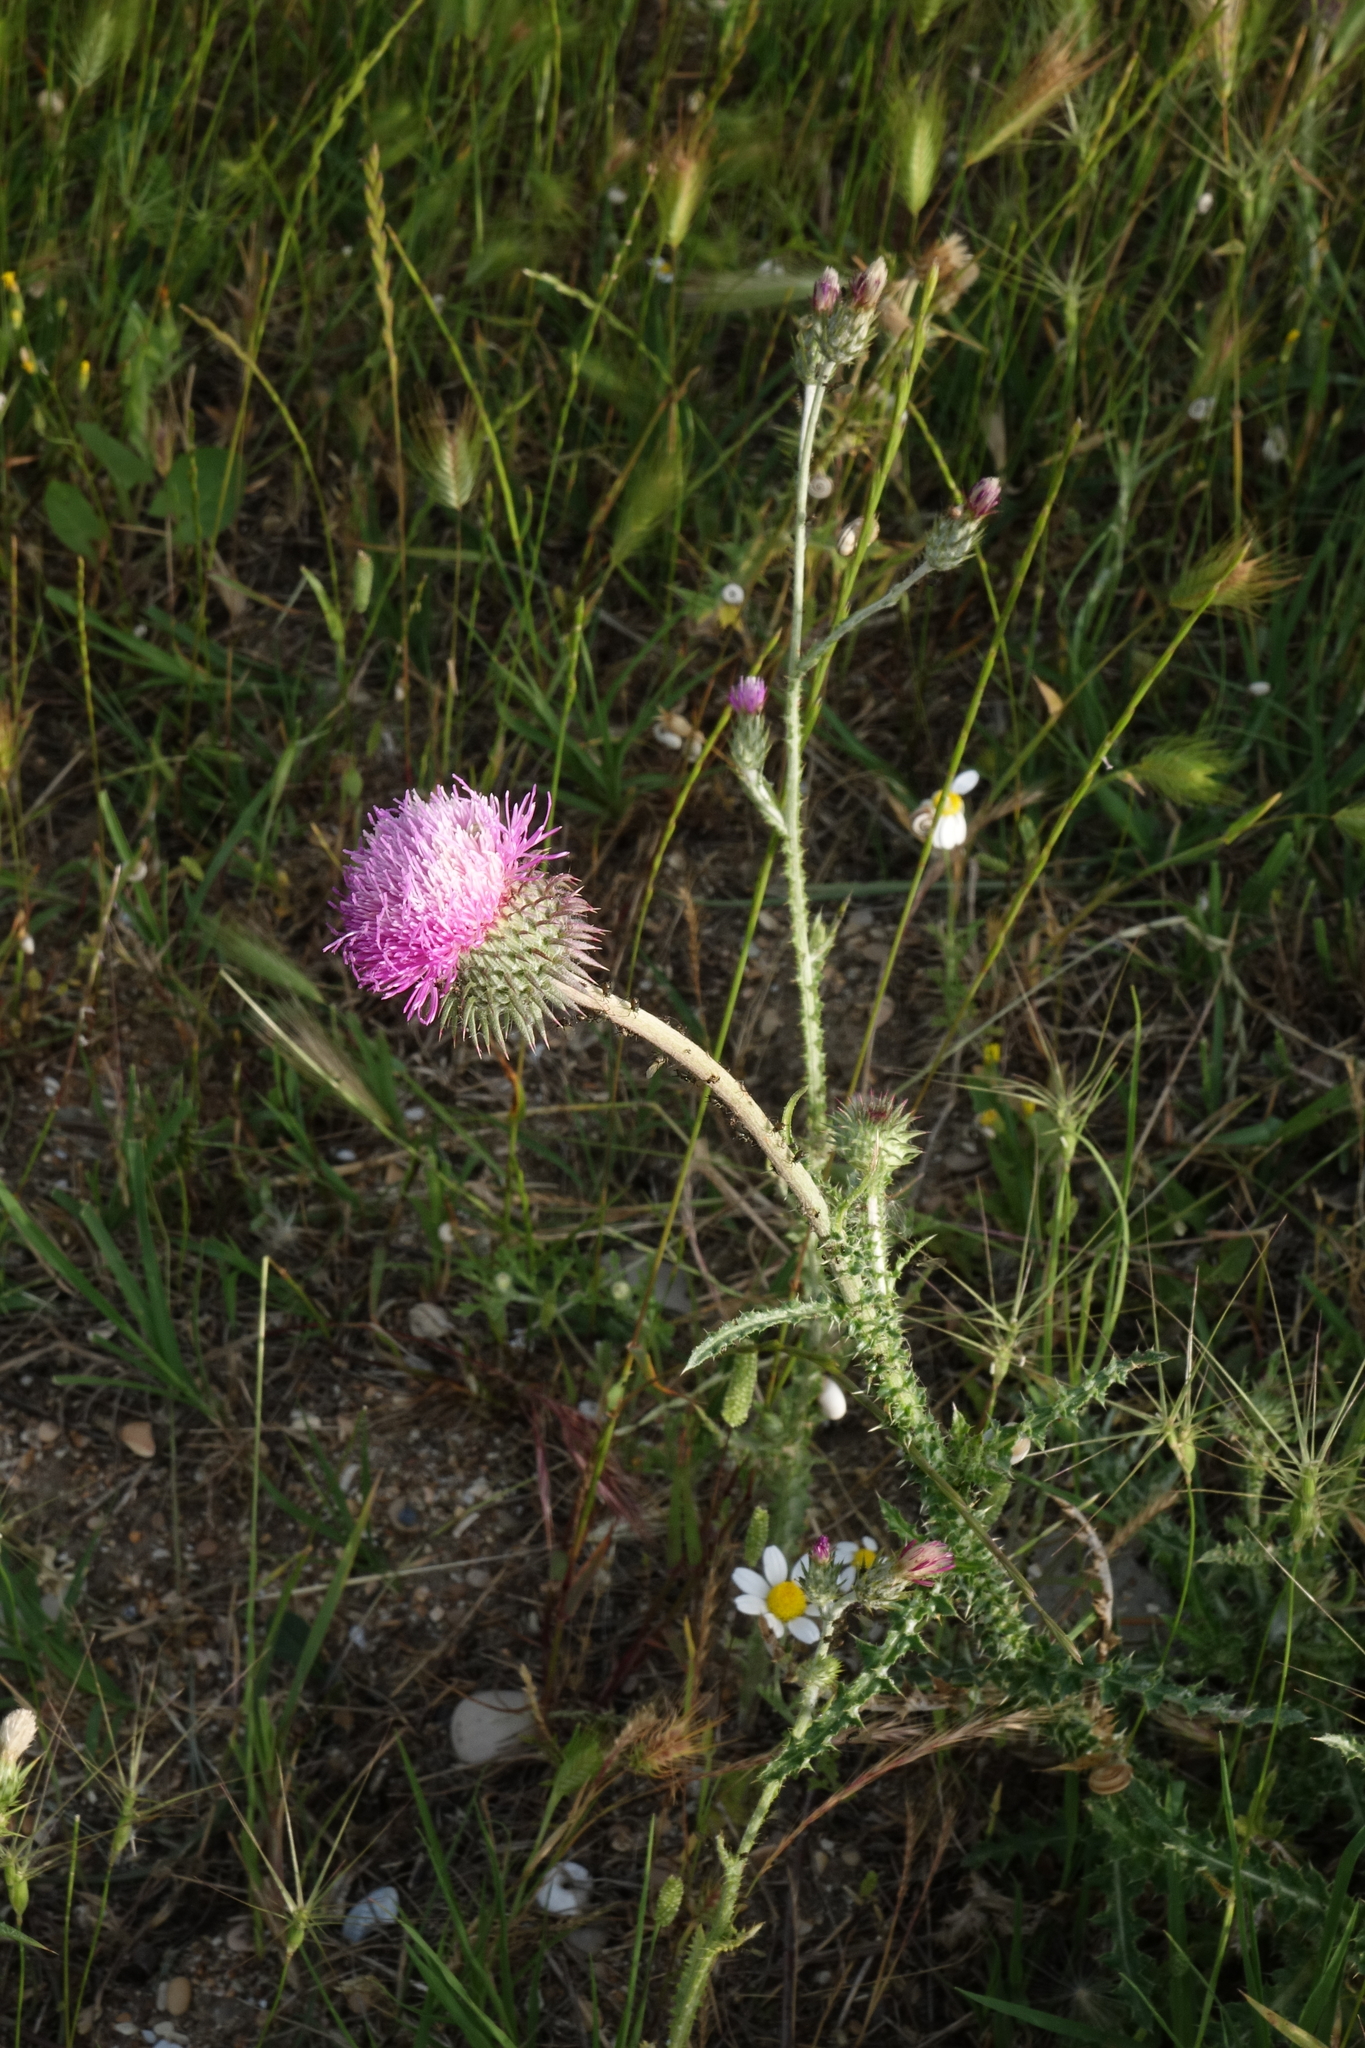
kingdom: Plantae
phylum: Tracheophyta
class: Magnoliopsida
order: Asterales
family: Asteraceae
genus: Carduus
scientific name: Carduus uncinatus
